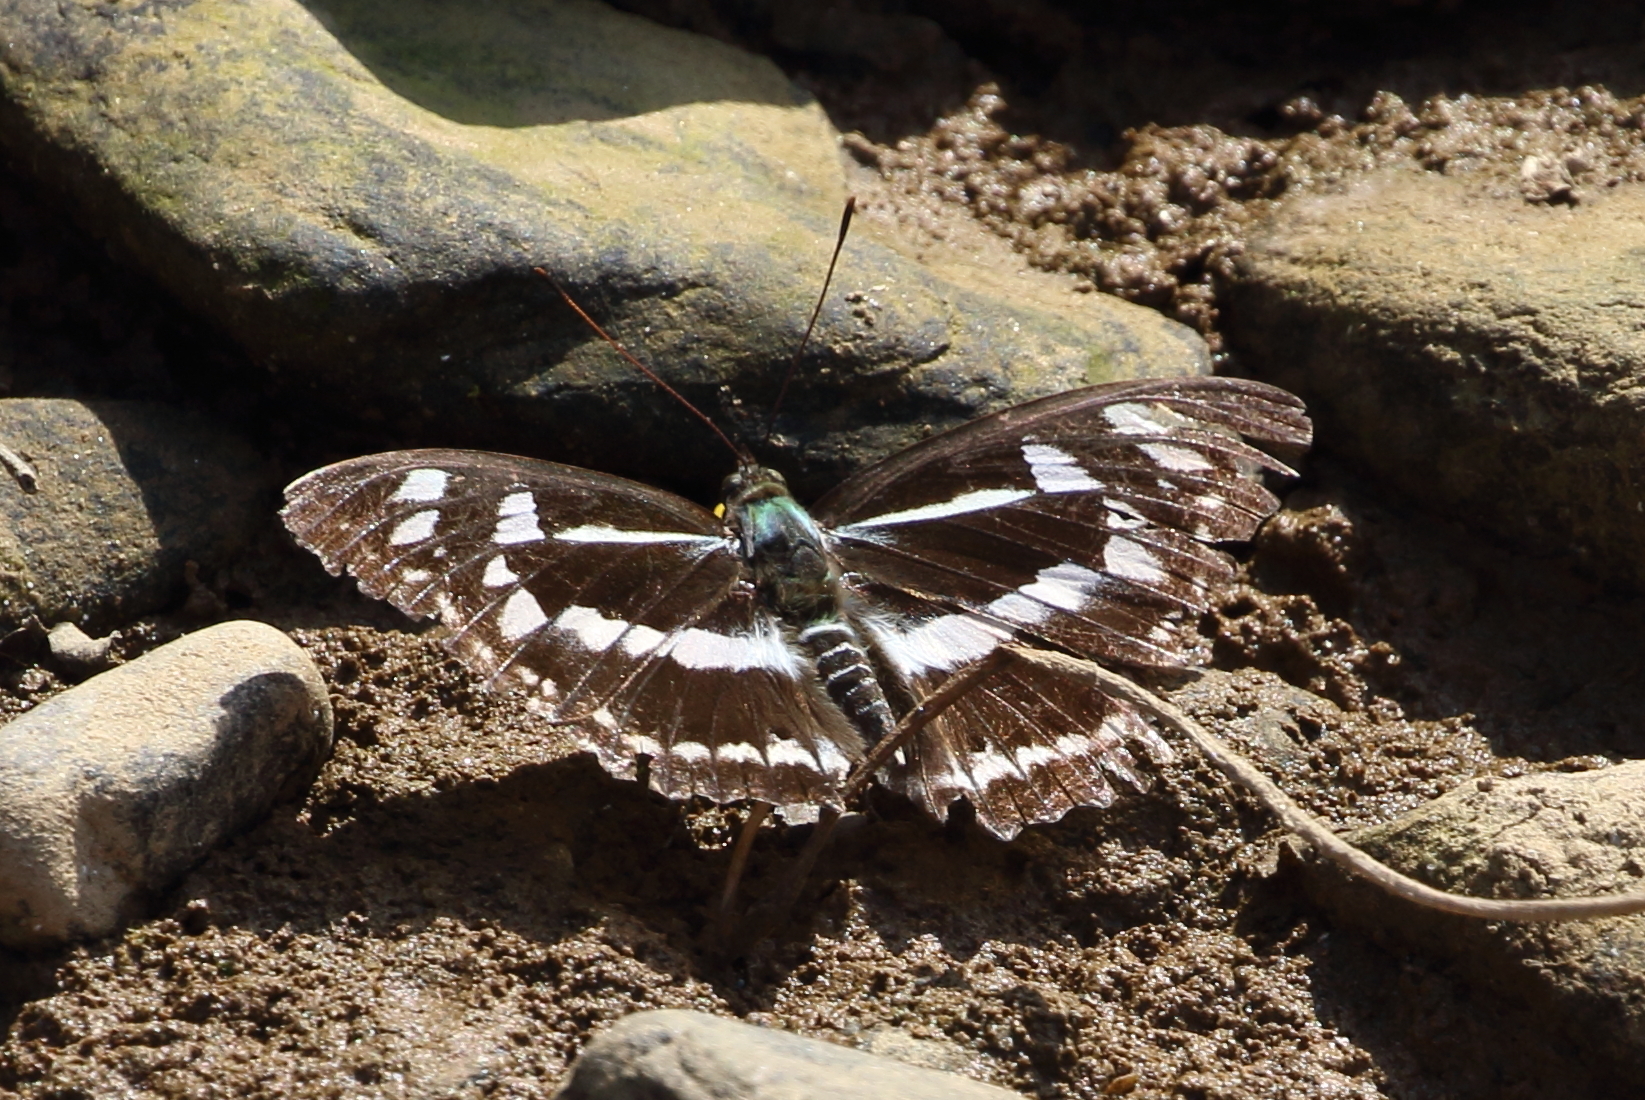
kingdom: Animalia
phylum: Arthropoda
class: Insecta
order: Lepidoptera
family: Nymphalidae
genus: Apatura
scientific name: Apatura Mimathyma chevana
